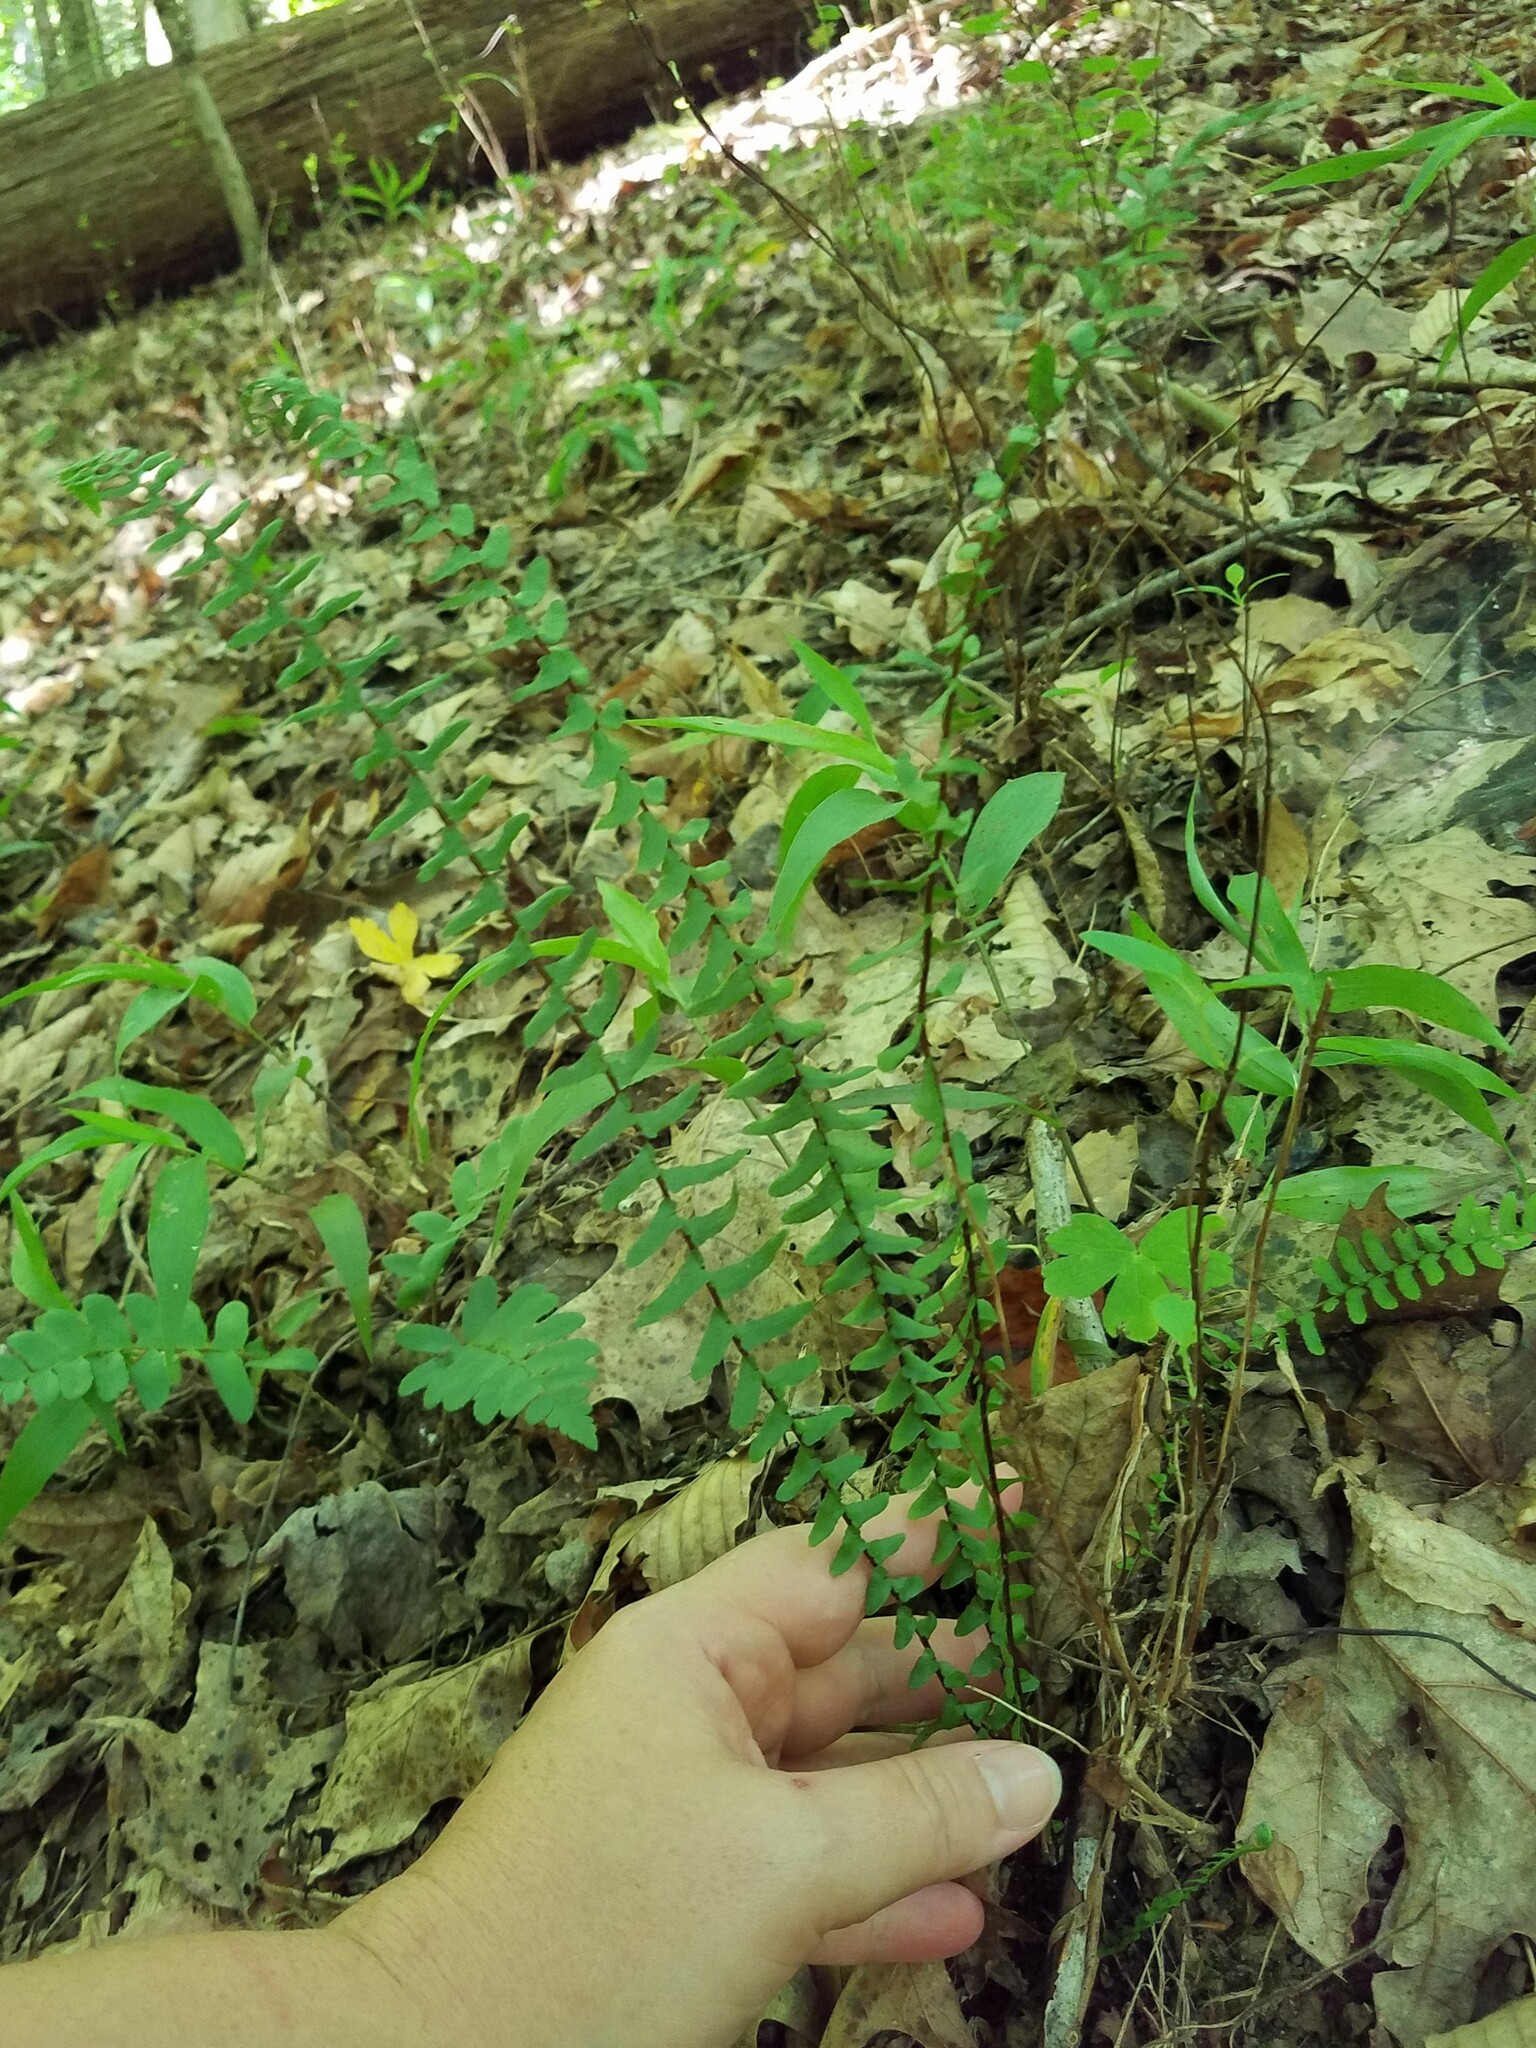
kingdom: Plantae
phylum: Tracheophyta
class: Polypodiopsida
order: Polypodiales
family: Aspleniaceae
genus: Asplenium
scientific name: Asplenium platyneuron
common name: Ebony spleenwort
